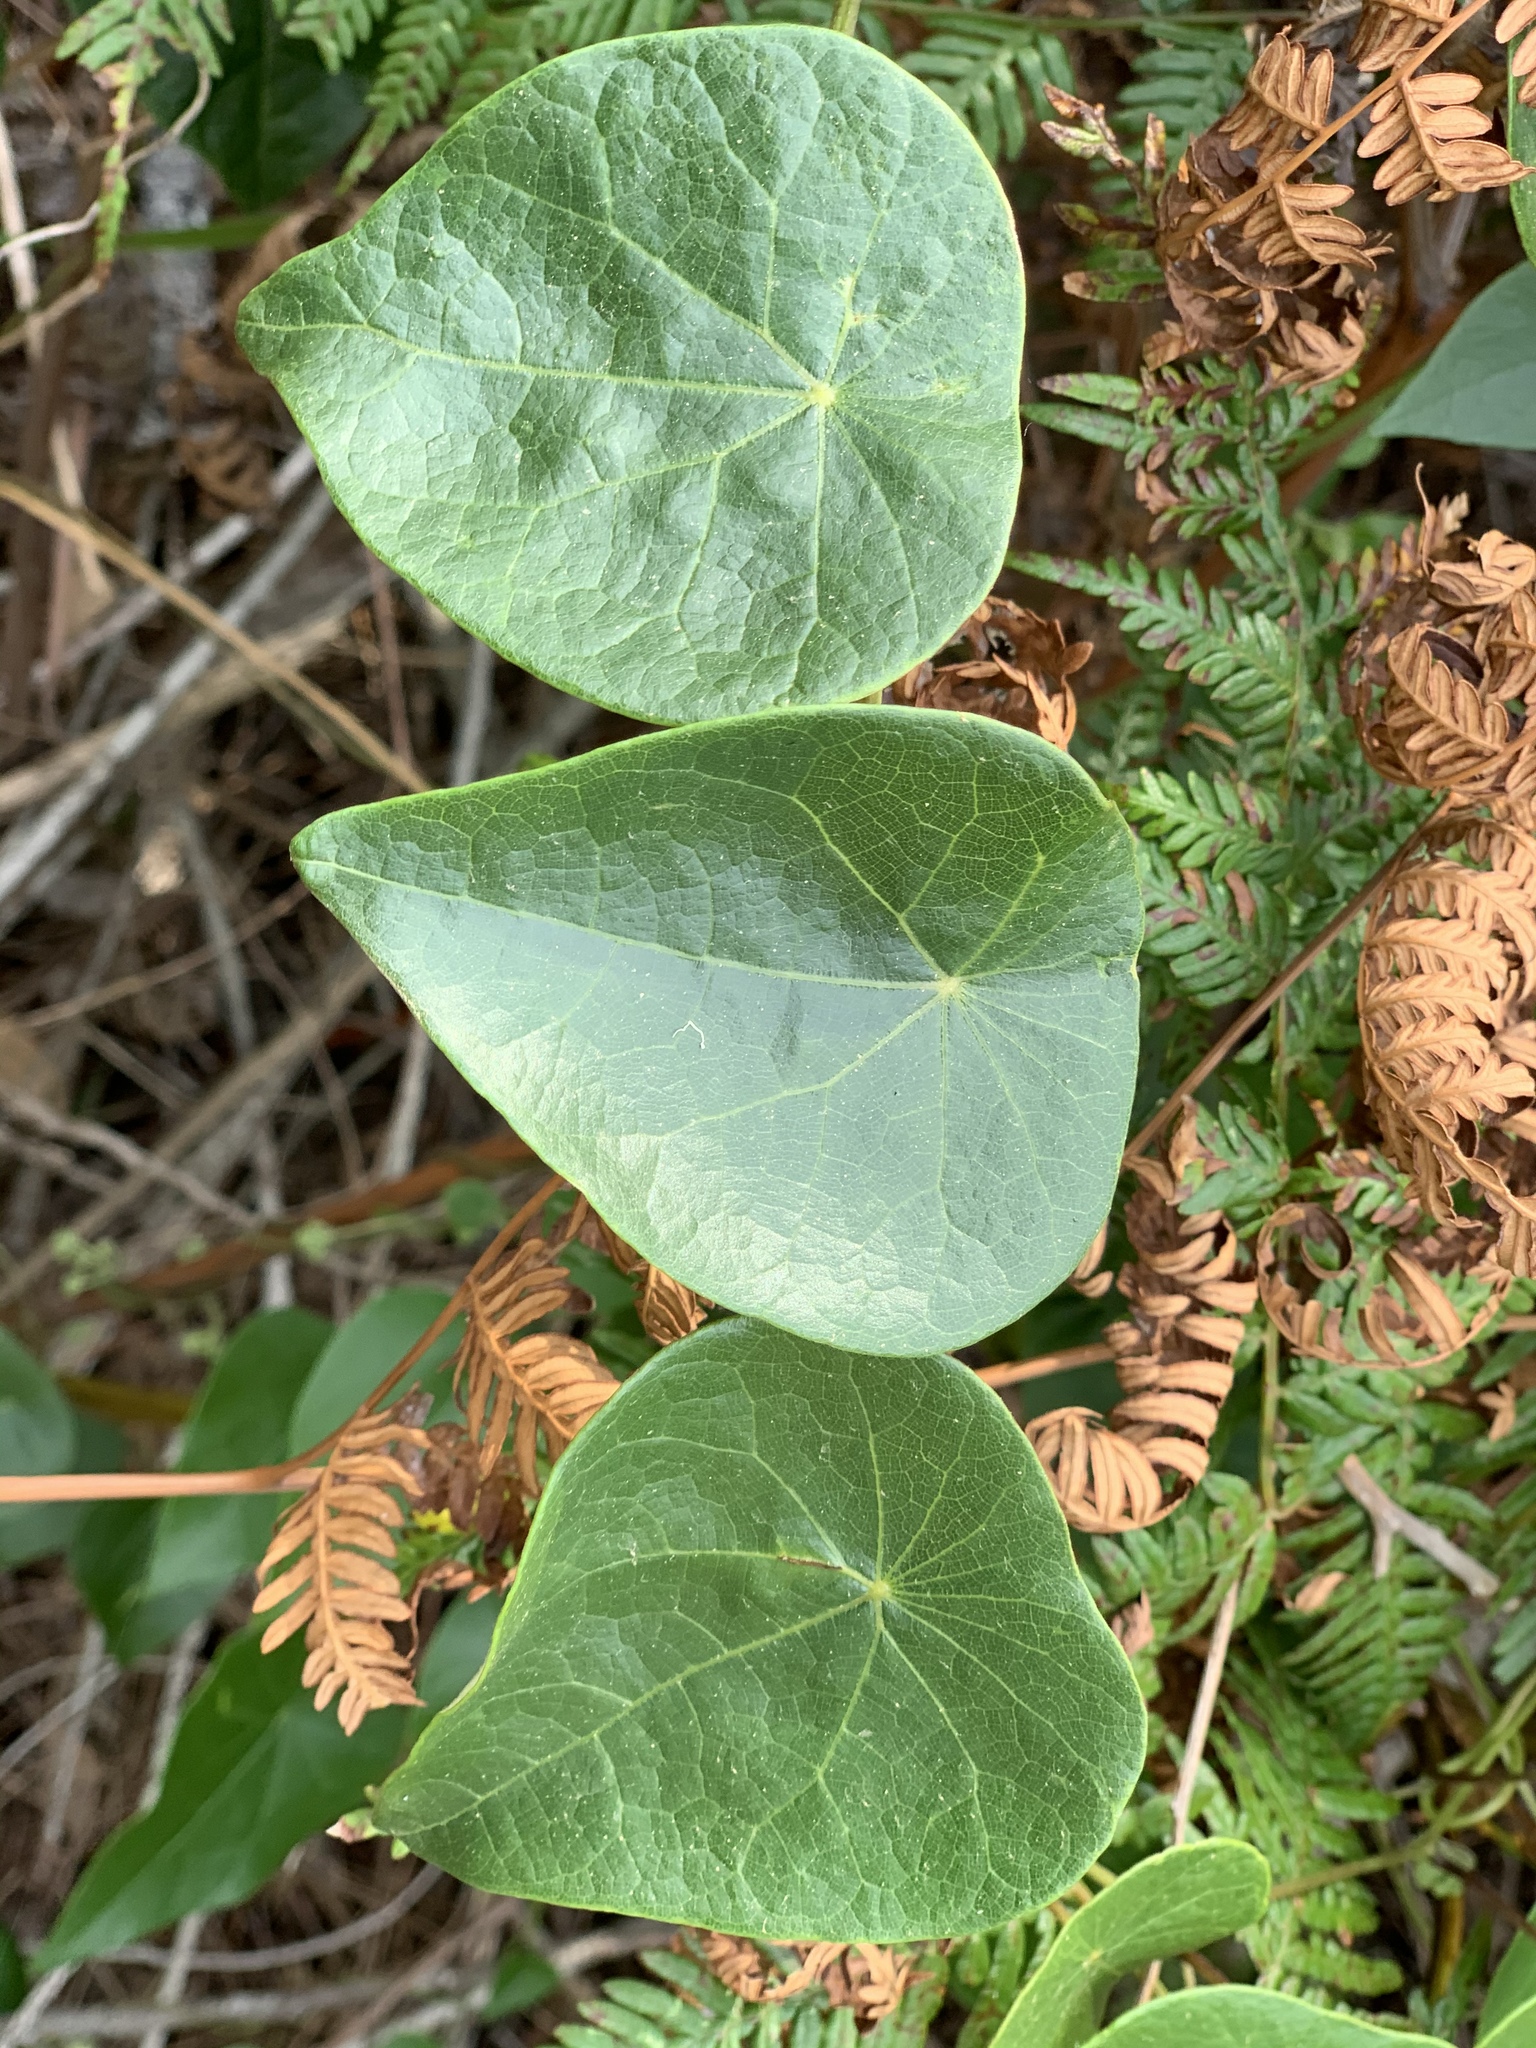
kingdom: Plantae
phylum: Tracheophyta
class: Magnoliopsida
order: Ranunculales
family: Menispermaceae
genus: Stephania
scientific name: Stephania japonica
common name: Snake vine
